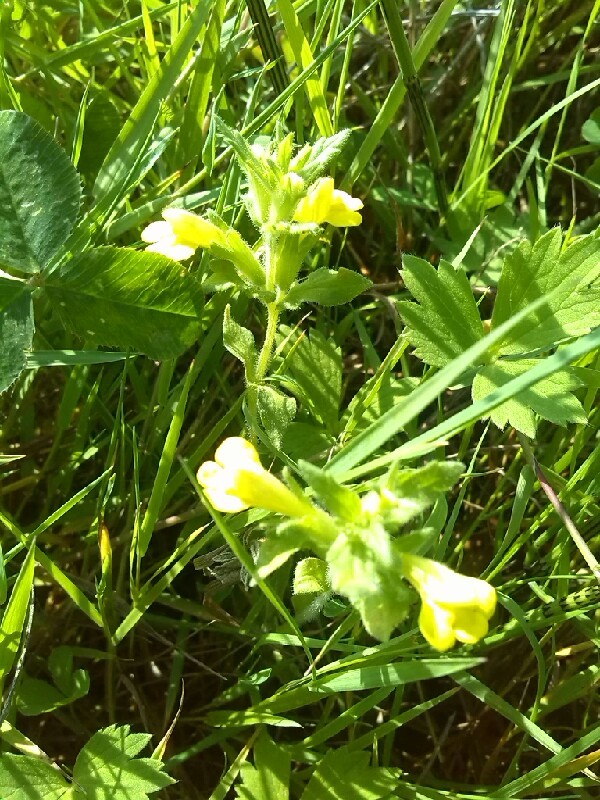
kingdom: Plantae
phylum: Tracheophyta
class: Magnoliopsida
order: Lamiales
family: Orobanchaceae
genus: Bellardia
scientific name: Bellardia viscosa
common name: Sticky parentucellia
